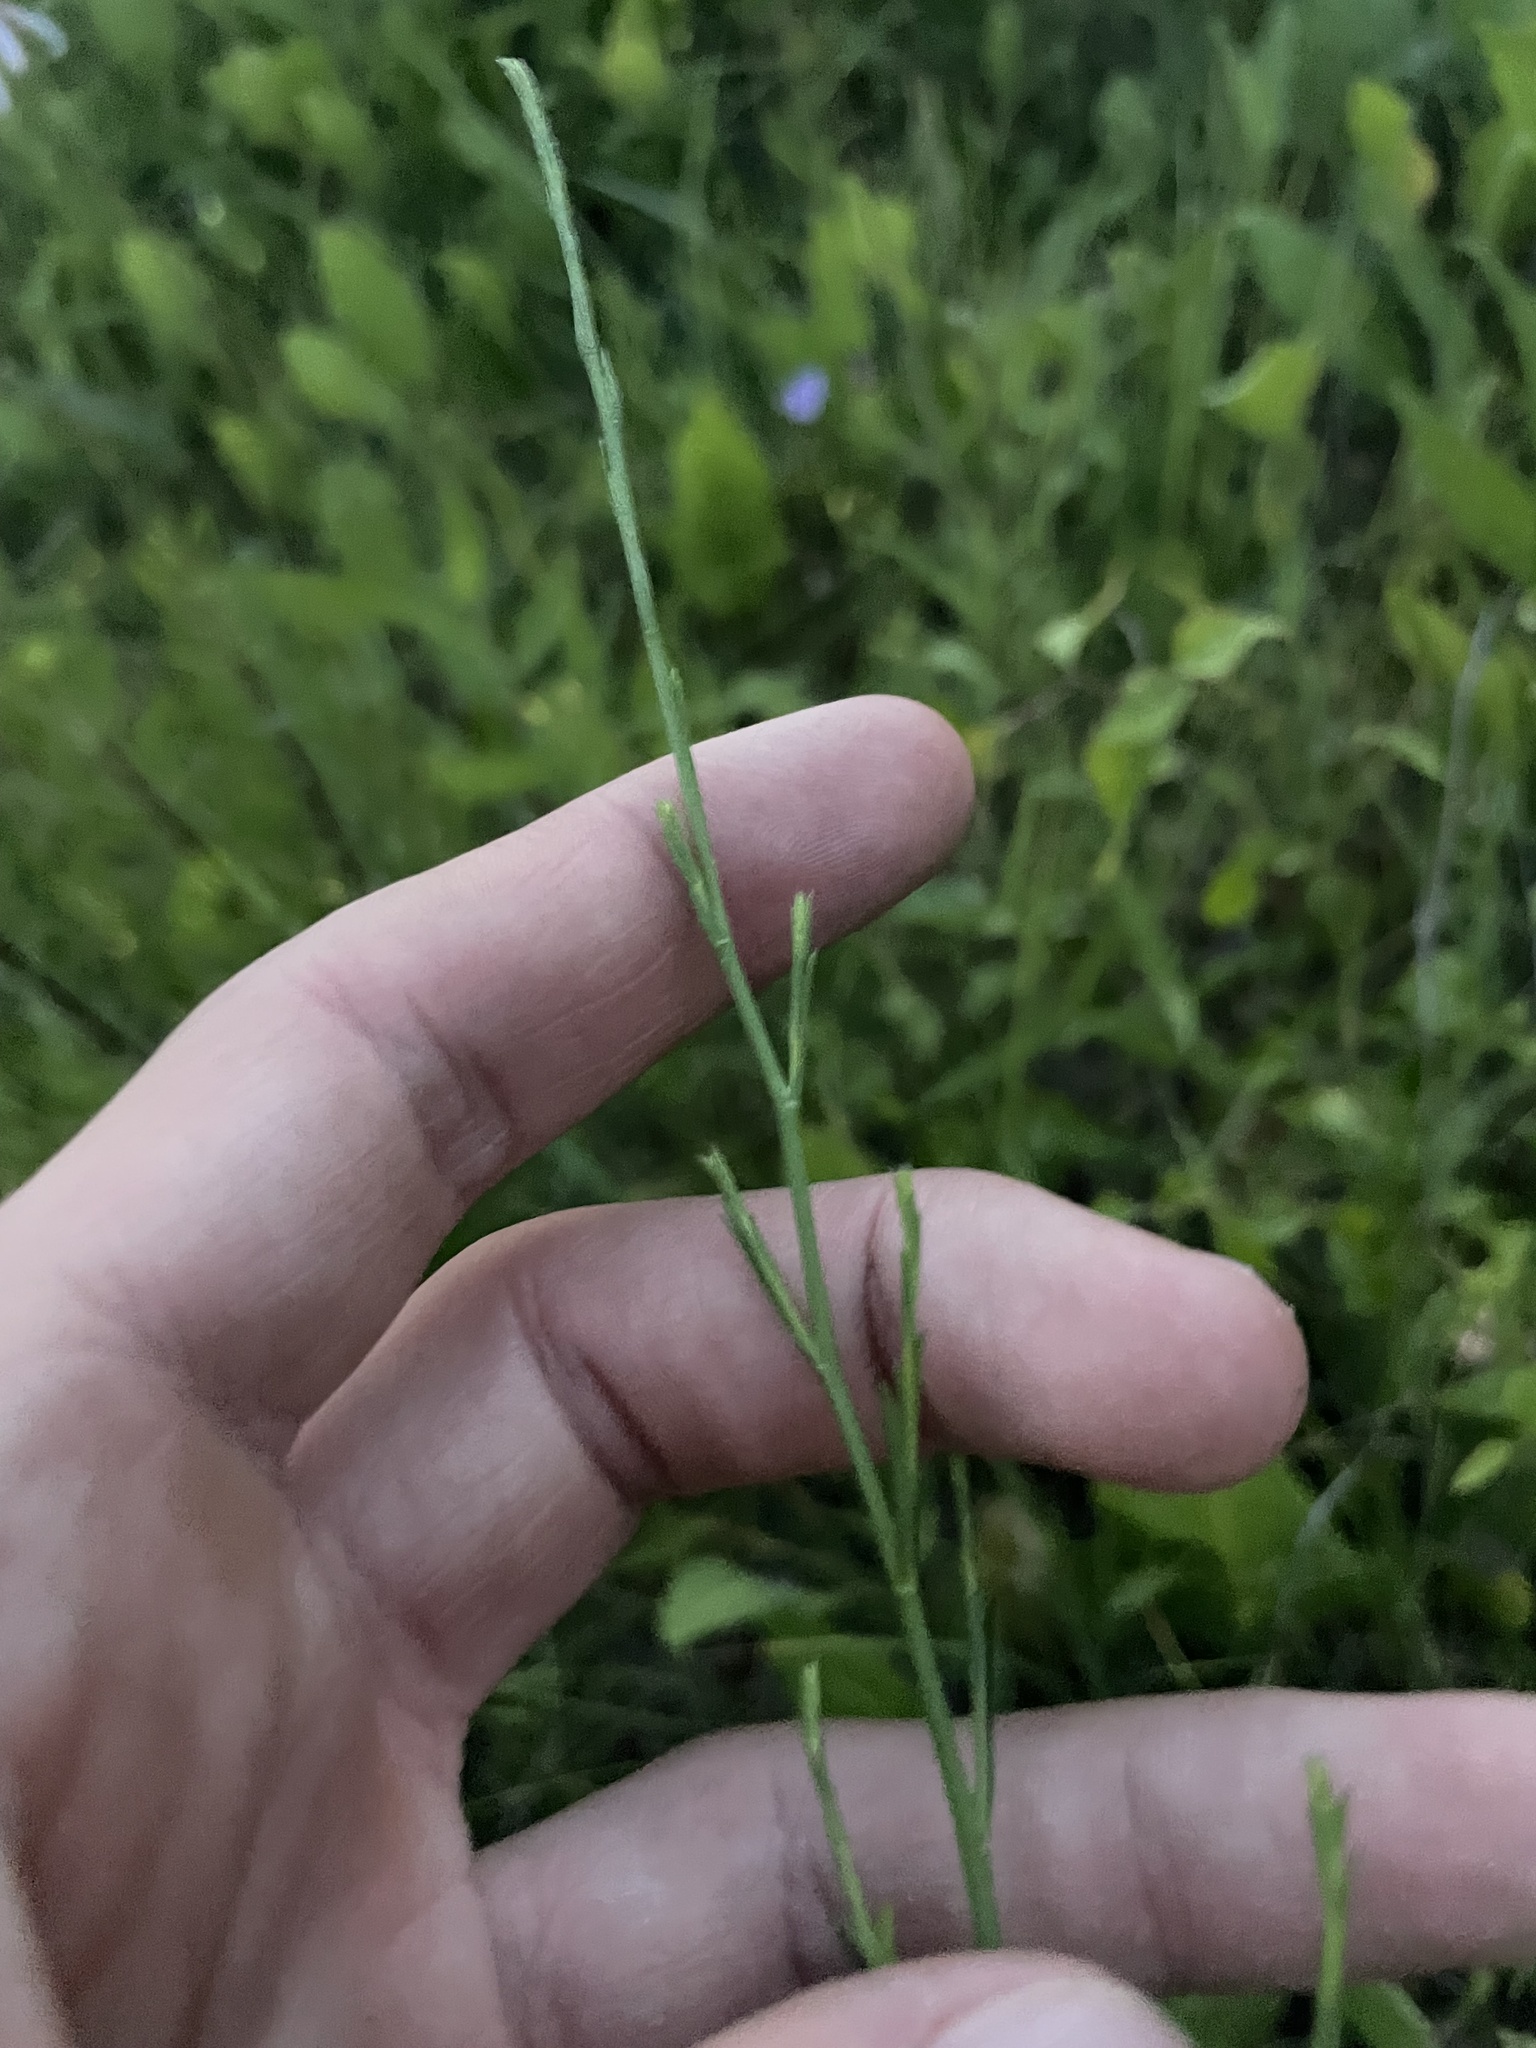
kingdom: Plantae
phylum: Tracheophyta
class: Magnoliopsida
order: Asterales
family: Asteraceae
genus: Symphyotrichum
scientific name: Symphyotrichum oolentangiense
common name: Azure aster
